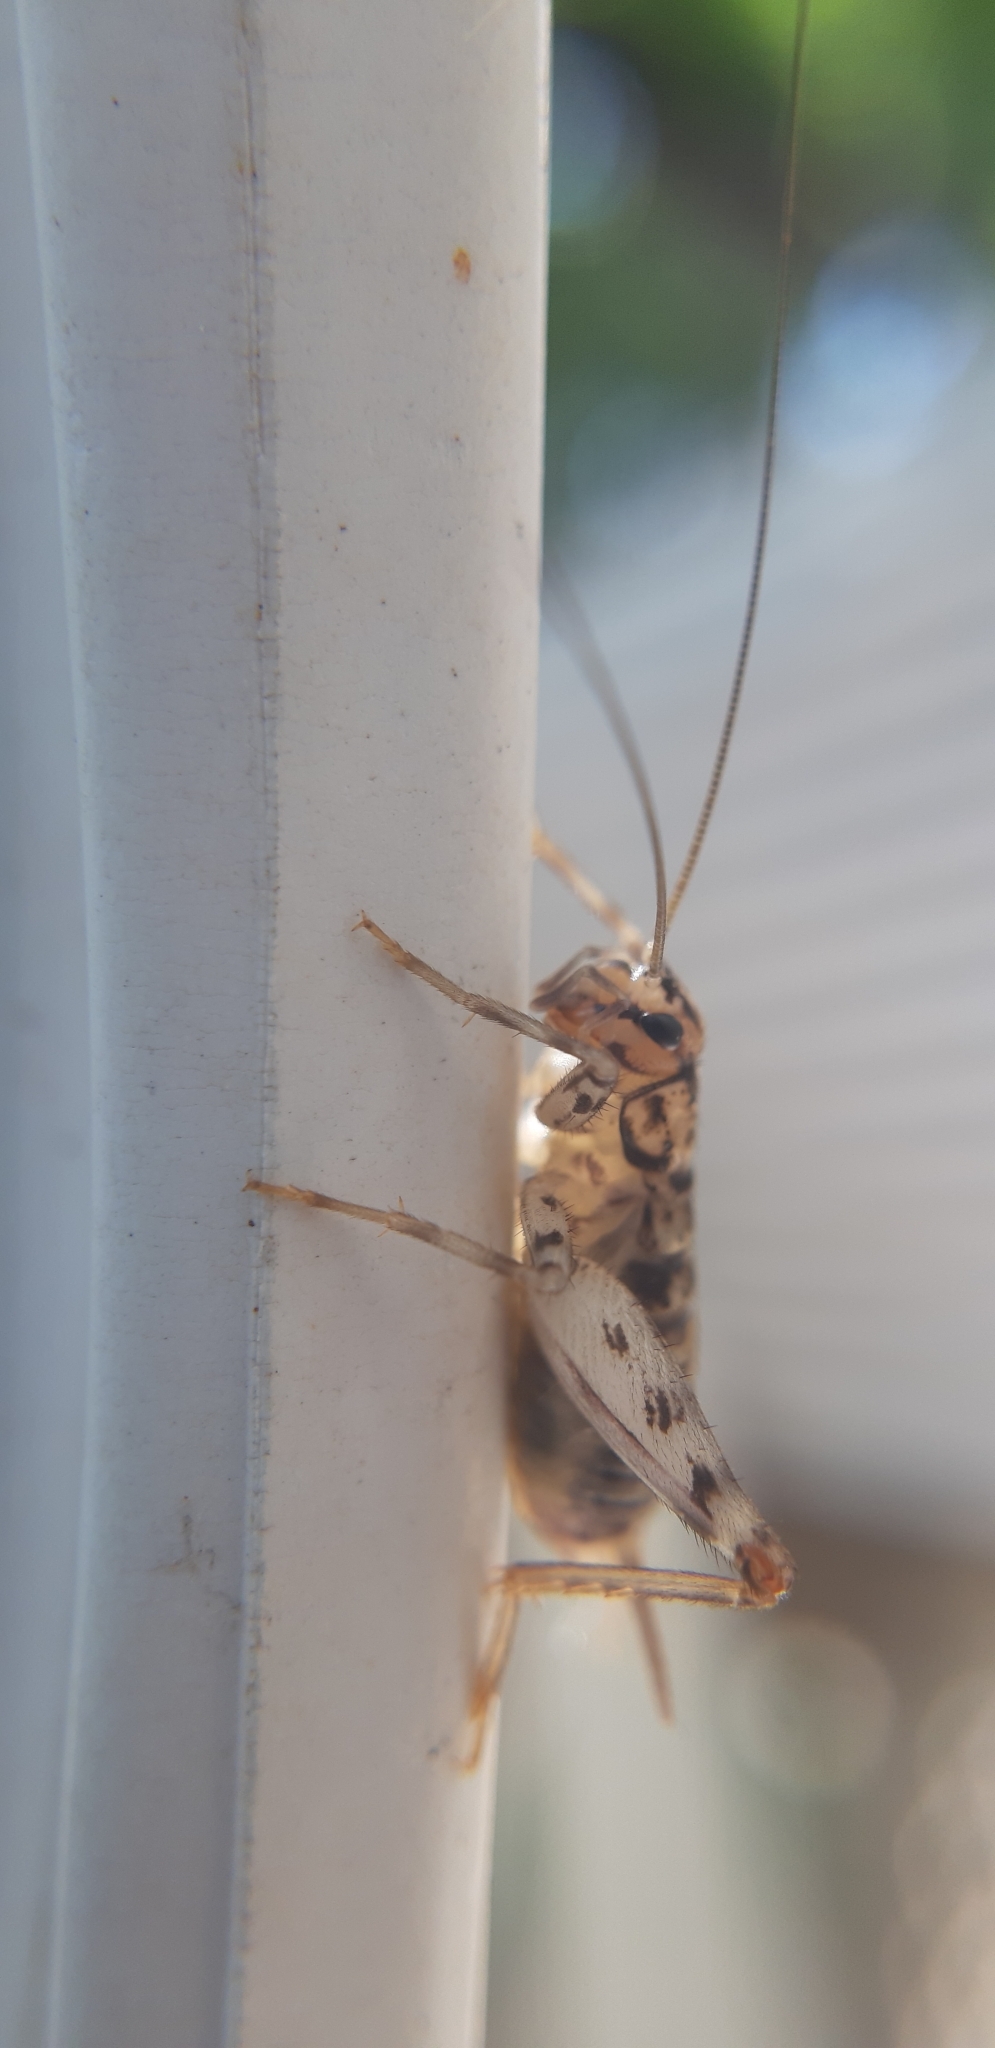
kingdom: Animalia
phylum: Arthropoda
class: Insecta
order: Orthoptera
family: Gryllidae
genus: Gryllomorpha
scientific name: Gryllomorpha dalmatina
